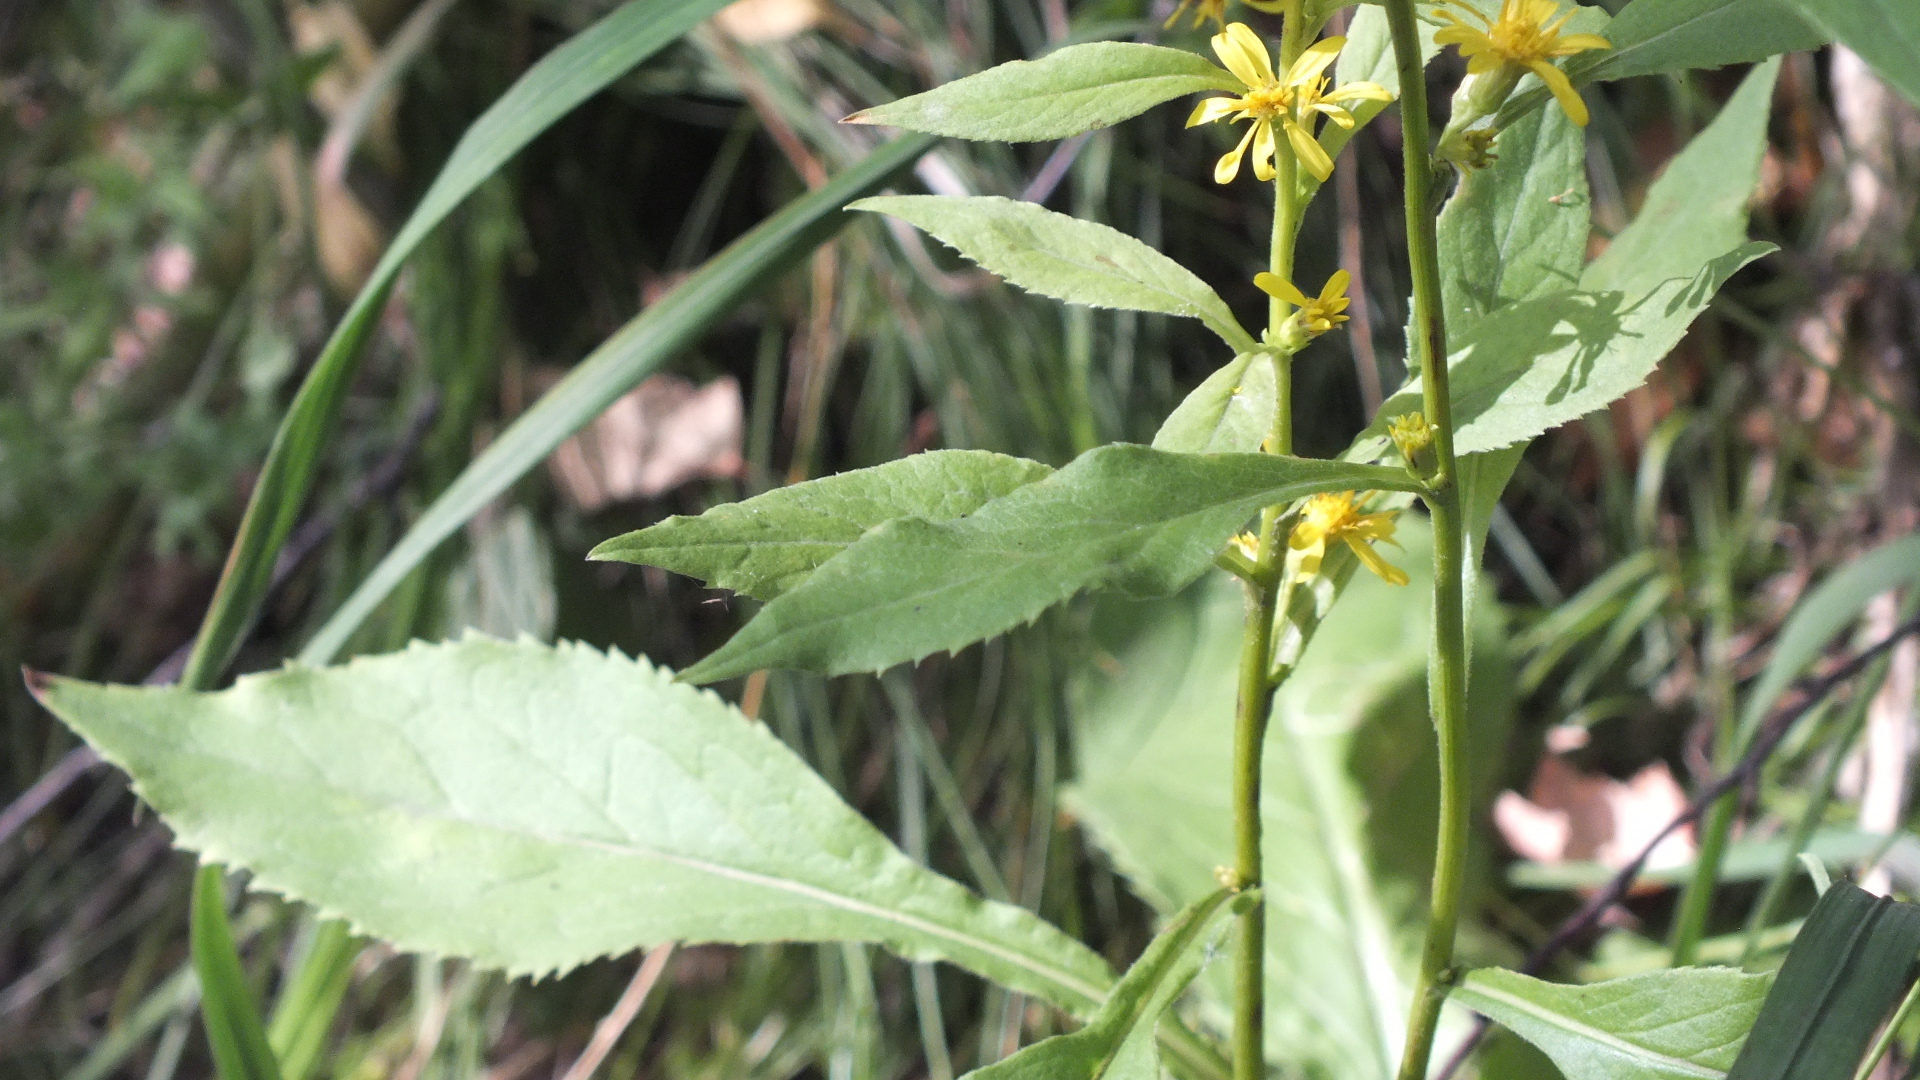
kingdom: Plantae
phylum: Tracheophyta
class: Magnoliopsida
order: Asterales
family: Asteraceae
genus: Solidago
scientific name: Solidago virgaurea
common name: Goldenrod
